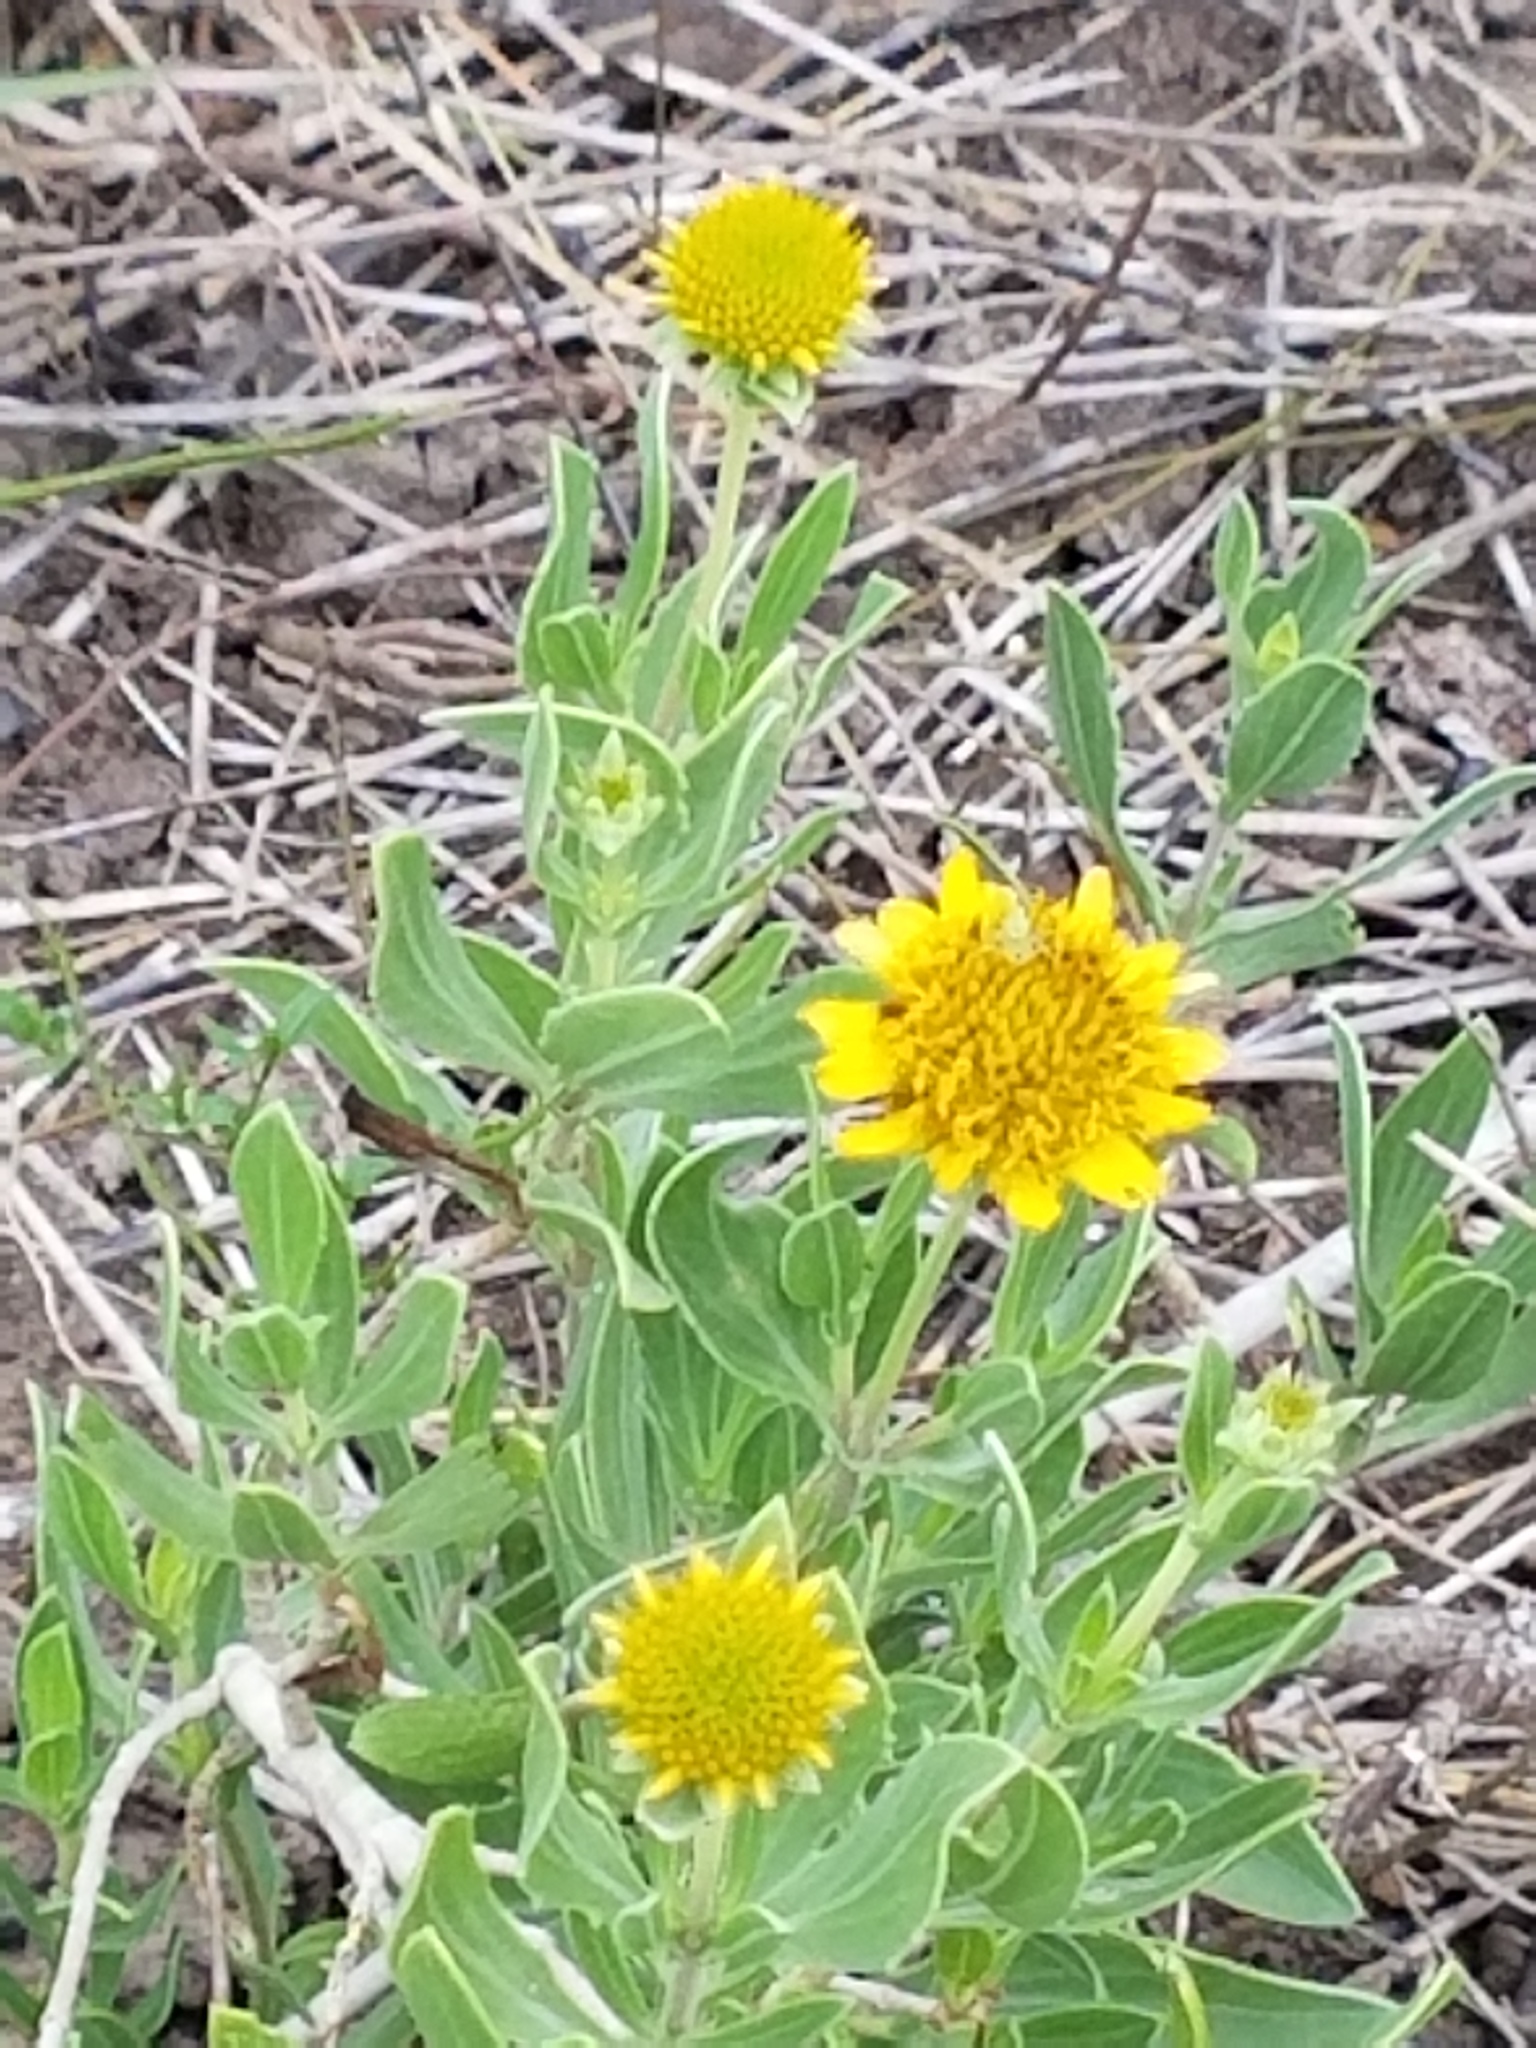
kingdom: Plantae
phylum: Tracheophyta
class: Magnoliopsida
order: Asterales
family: Asteraceae
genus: Borrichia
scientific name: Borrichia frutescens
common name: Sea oxeye
